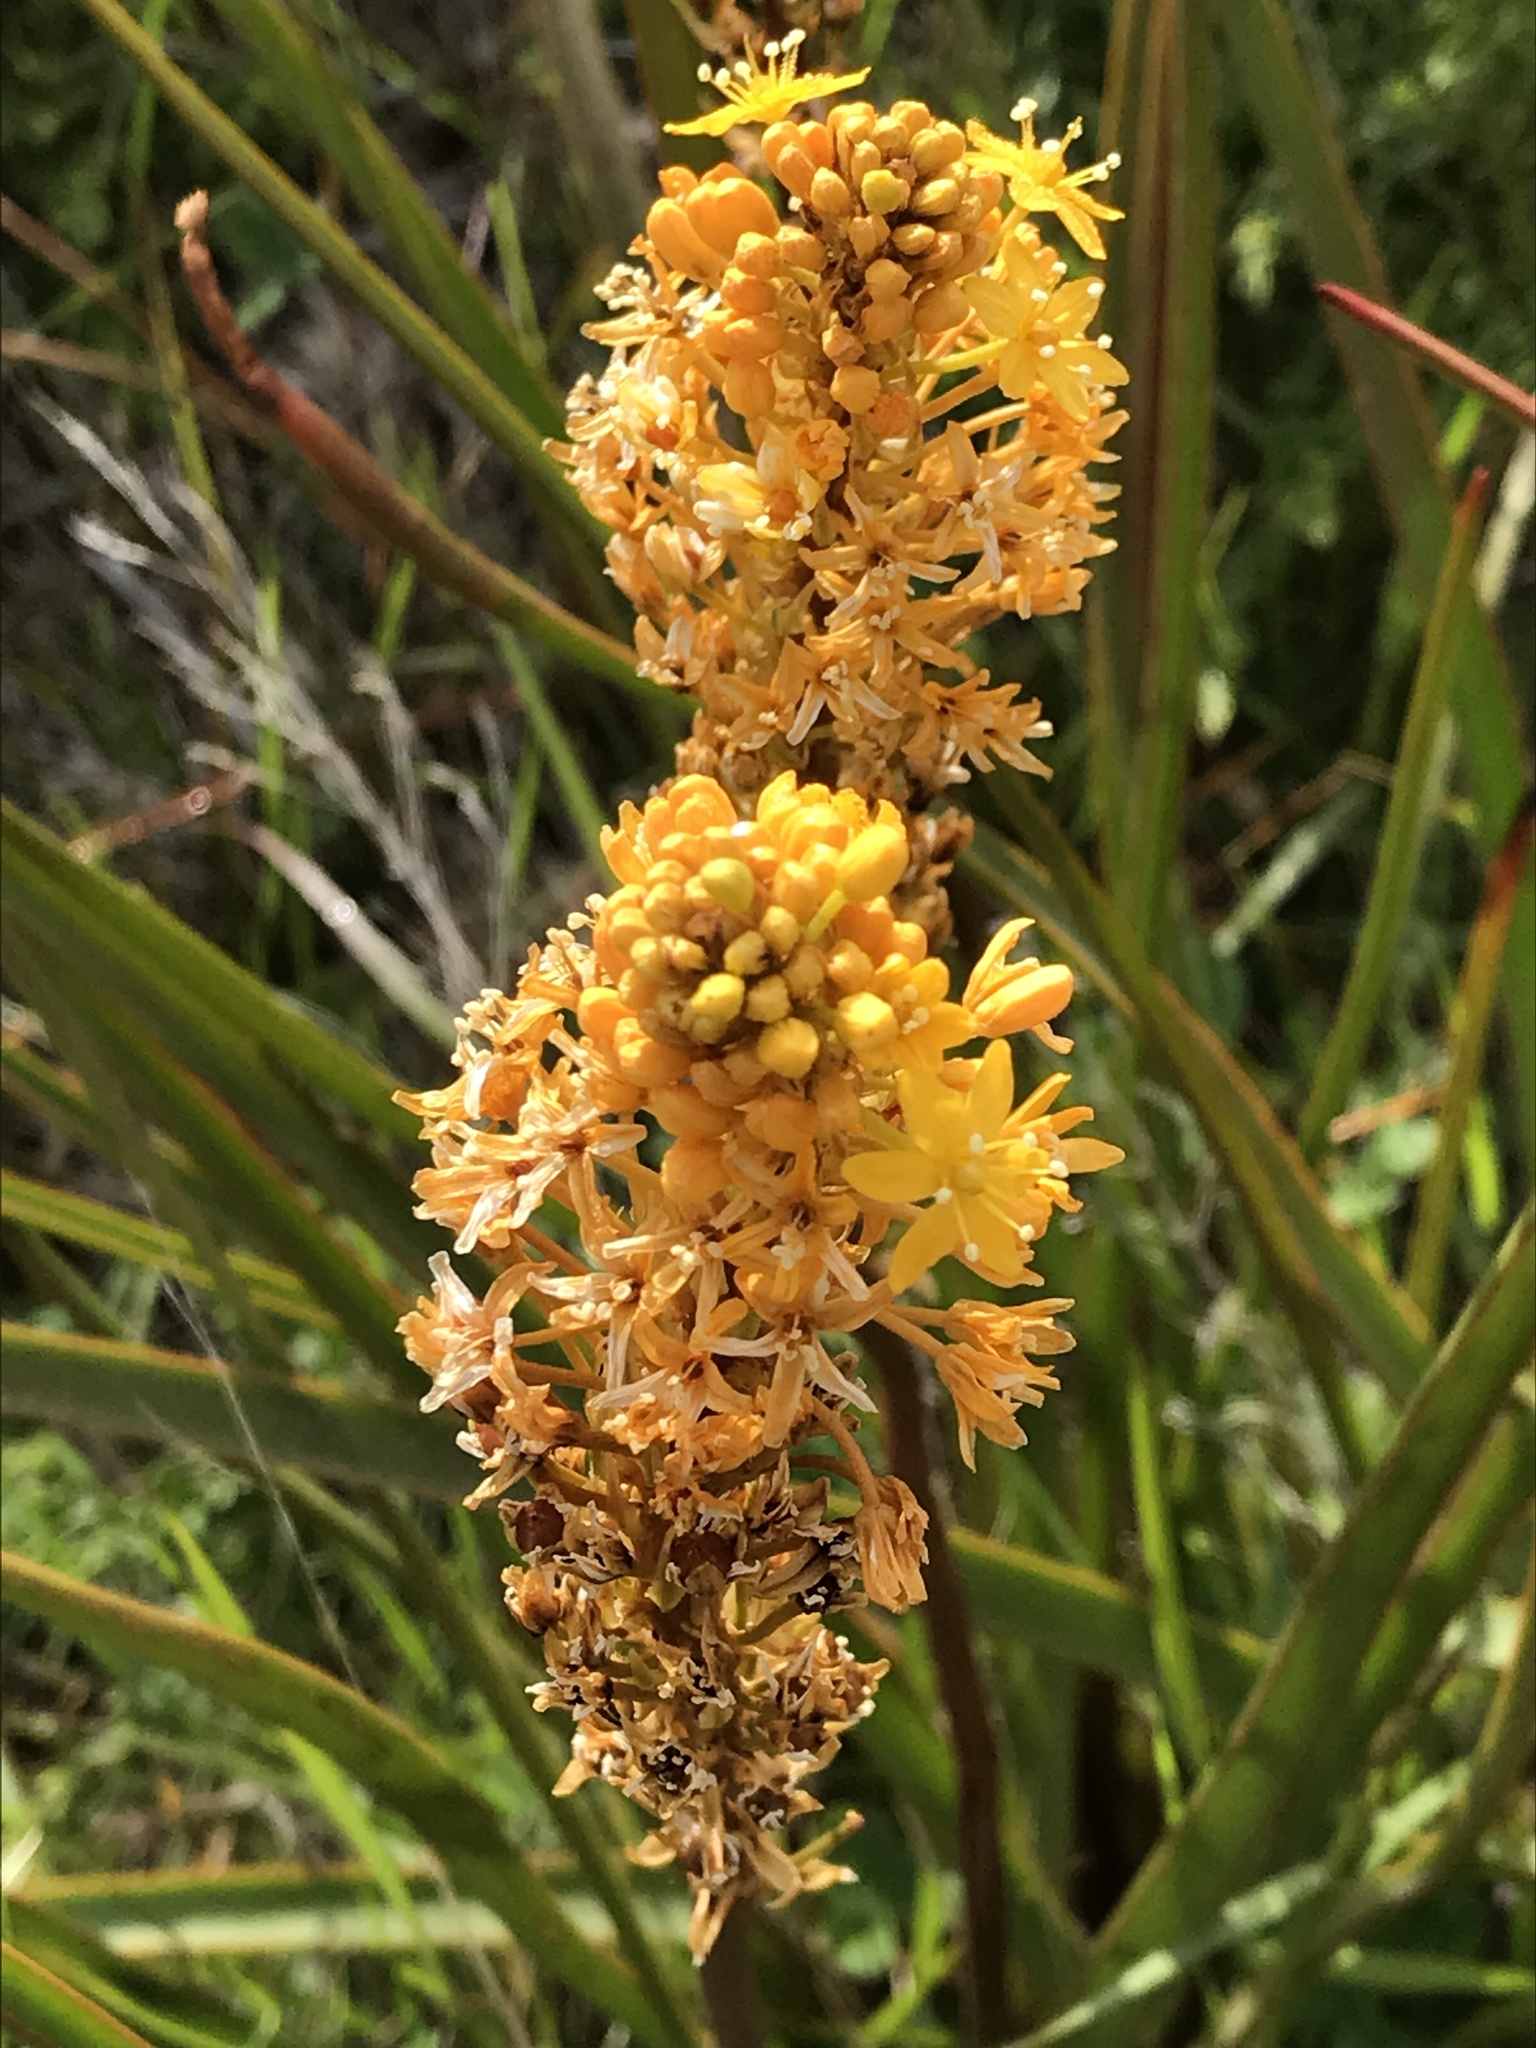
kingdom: Plantae
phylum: Tracheophyta
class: Liliopsida
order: Asparagales
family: Asphodelaceae
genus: Bulbinella
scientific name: Bulbinella angustifolia
